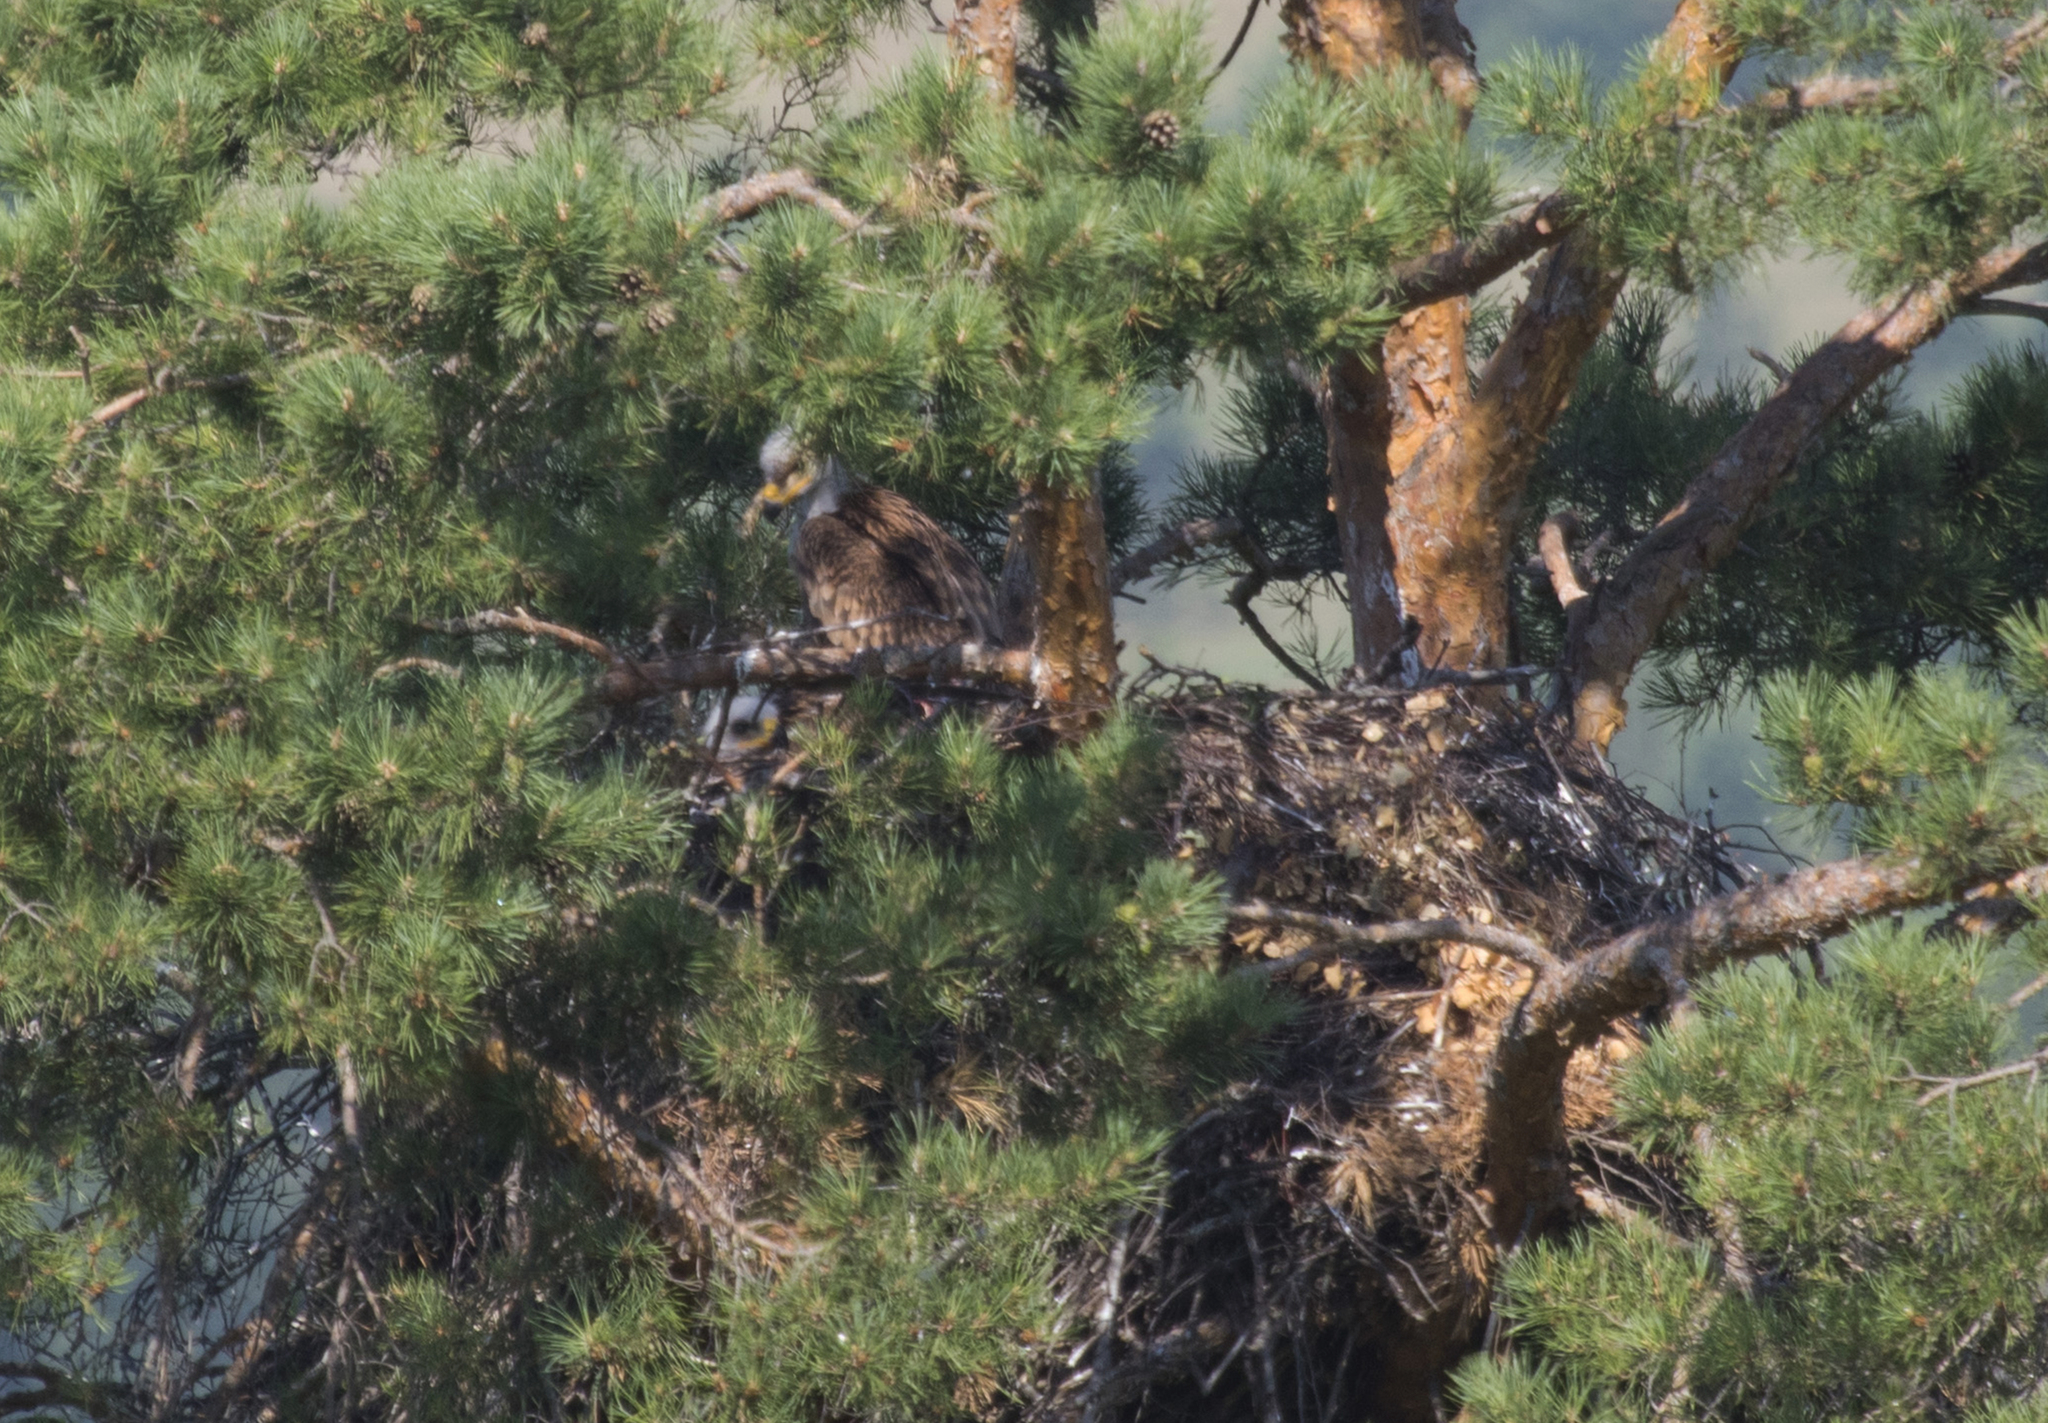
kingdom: Animalia
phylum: Chordata
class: Aves
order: Accipitriformes
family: Accipitridae
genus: Aquila
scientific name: Aquila heliaca
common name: Eastern imperial eagle
